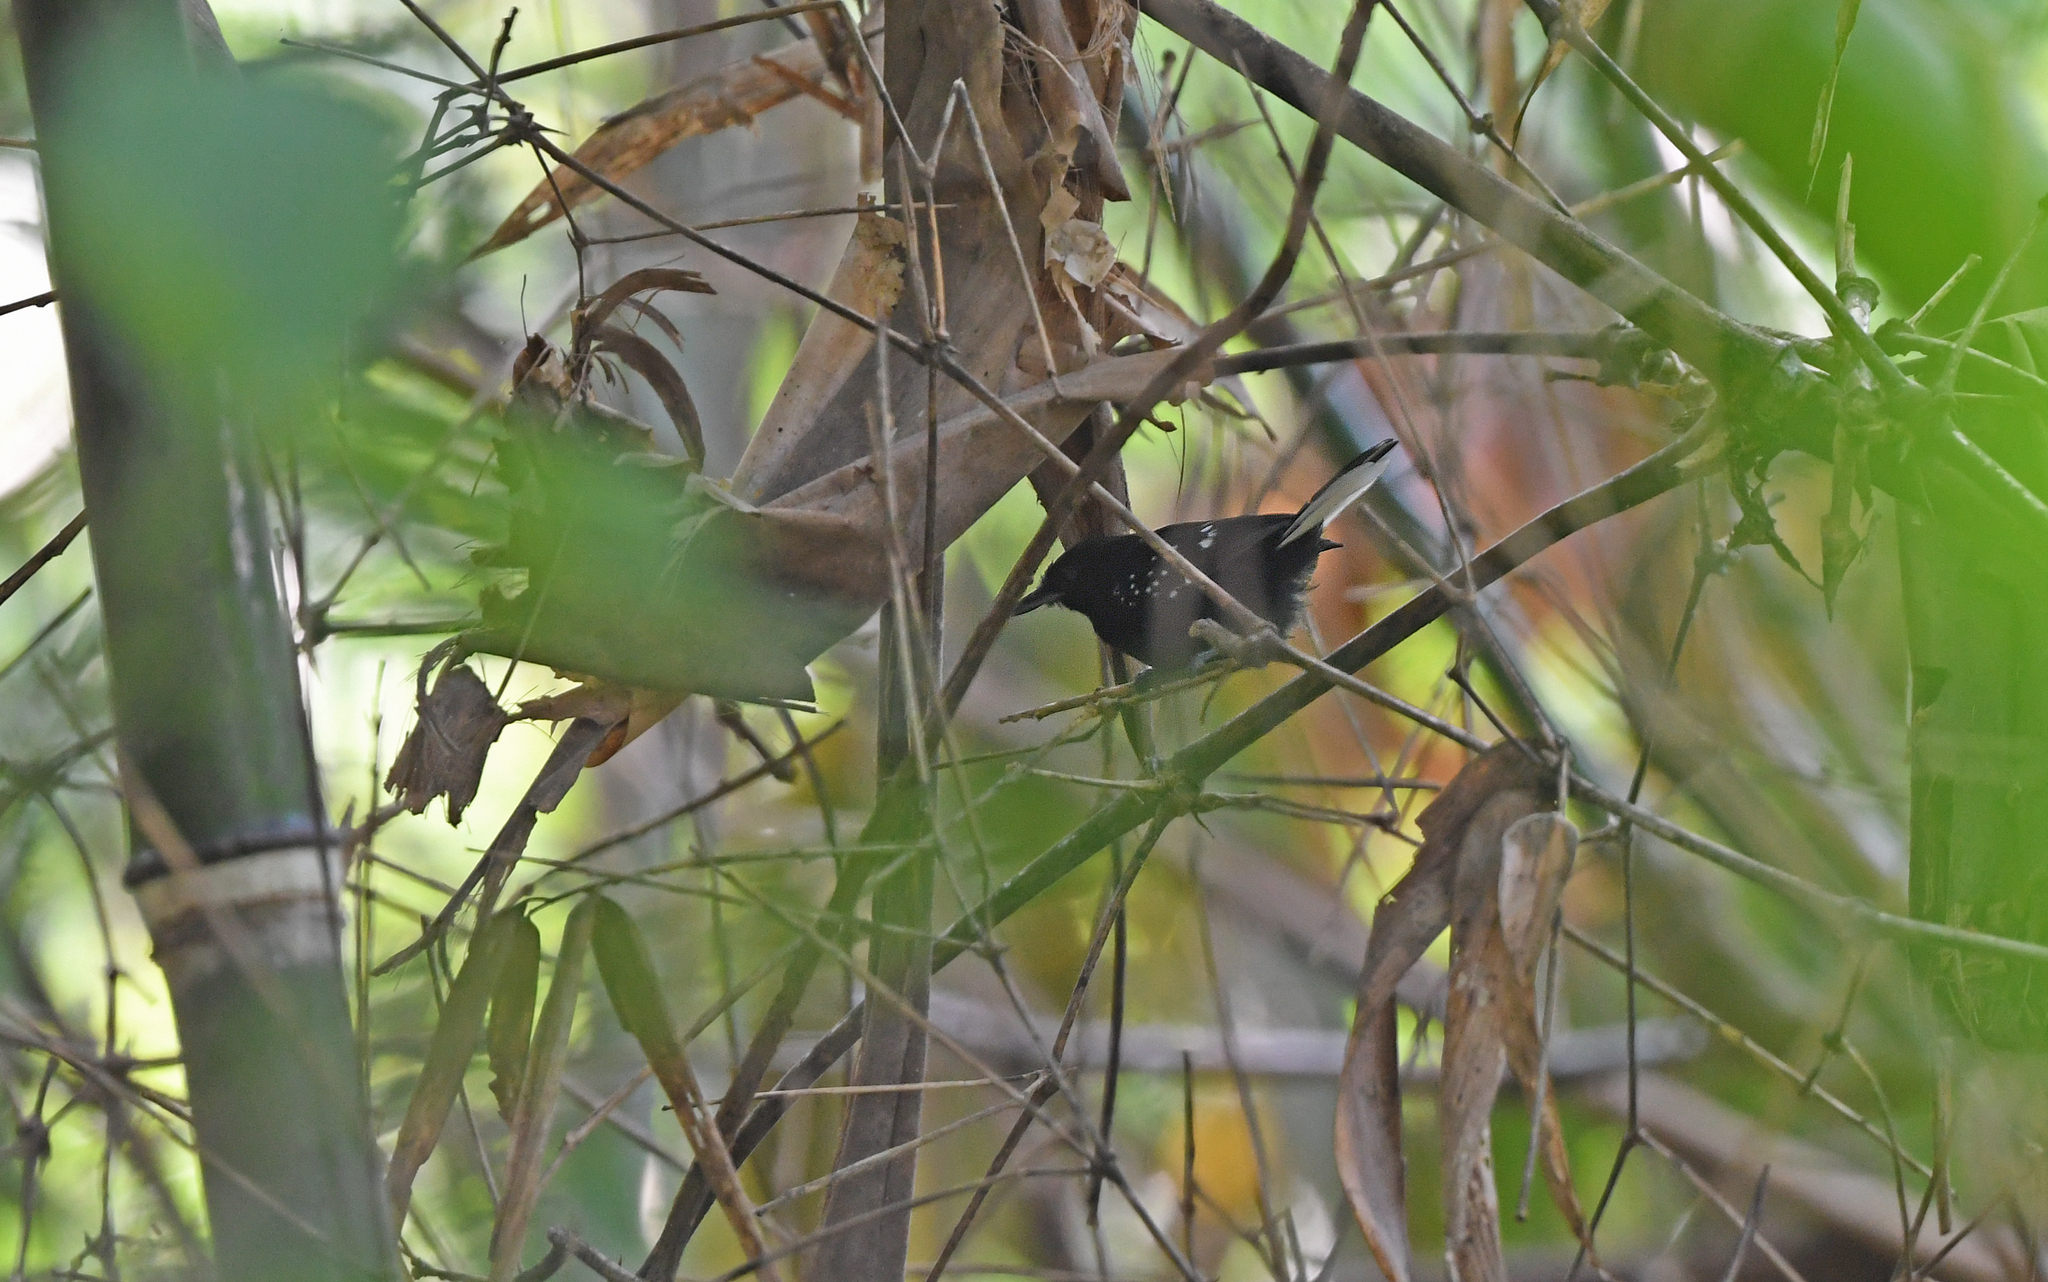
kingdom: Animalia
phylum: Chordata
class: Aves
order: Passeriformes
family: Thamnophilidae
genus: Microrhopias
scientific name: Microrhopias quixensis
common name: Dot-winged antwren
